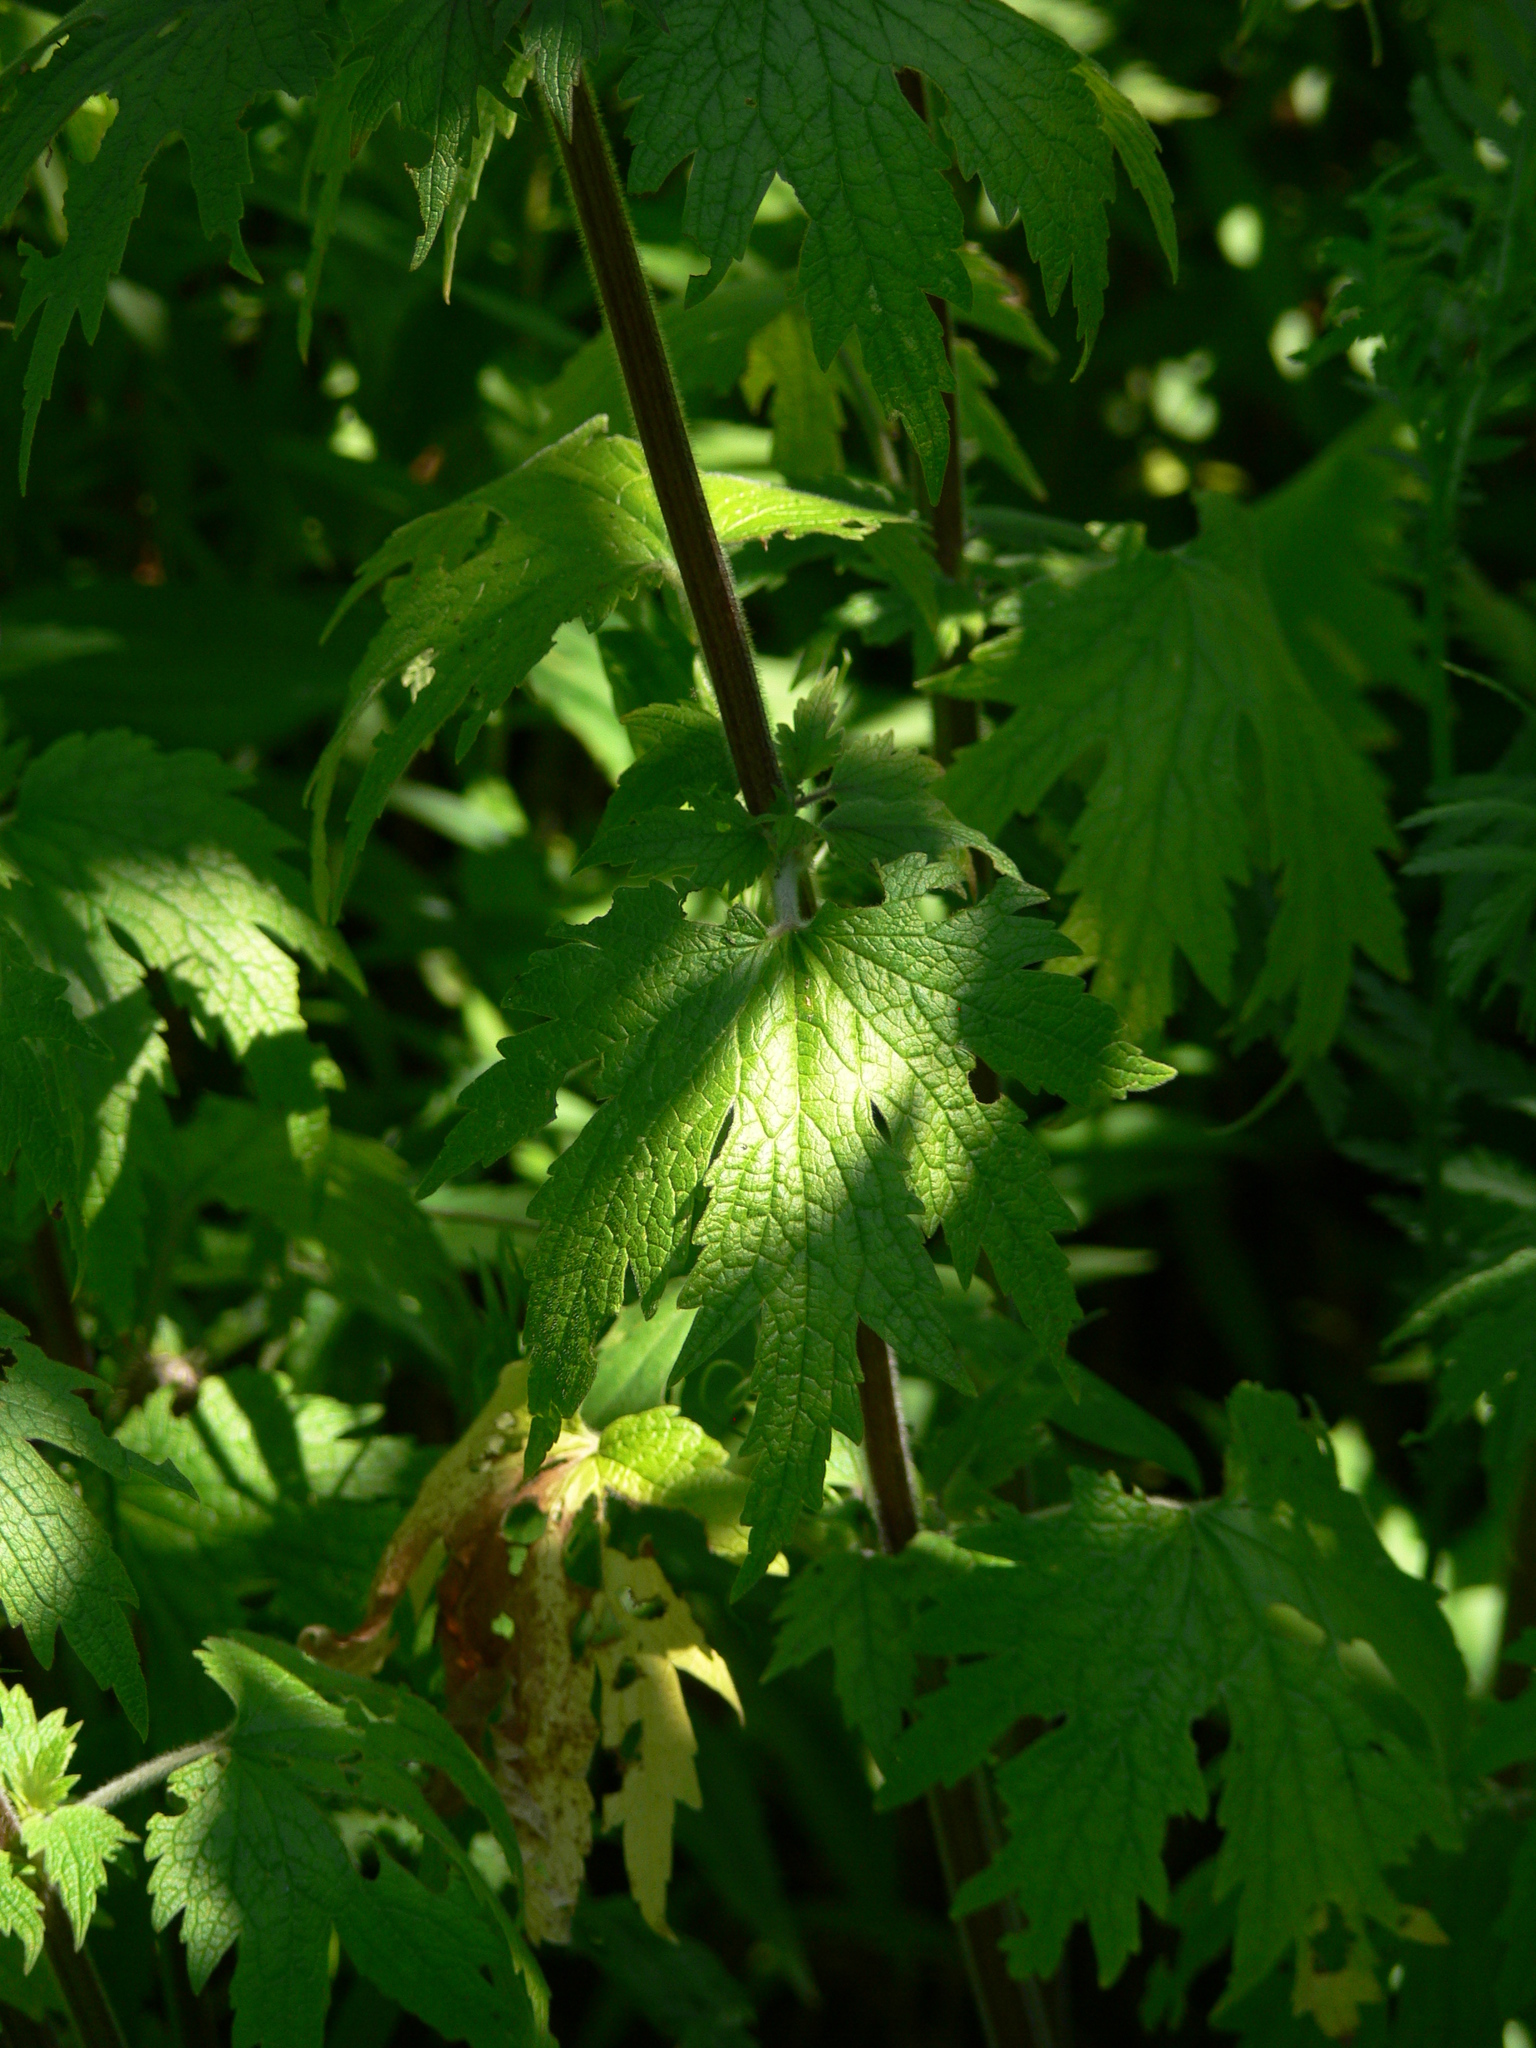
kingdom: Plantae
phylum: Tracheophyta
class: Magnoliopsida
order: Lamiales
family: Lamiaceae
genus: Leonurus
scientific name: Leonurus quinquelobatus
